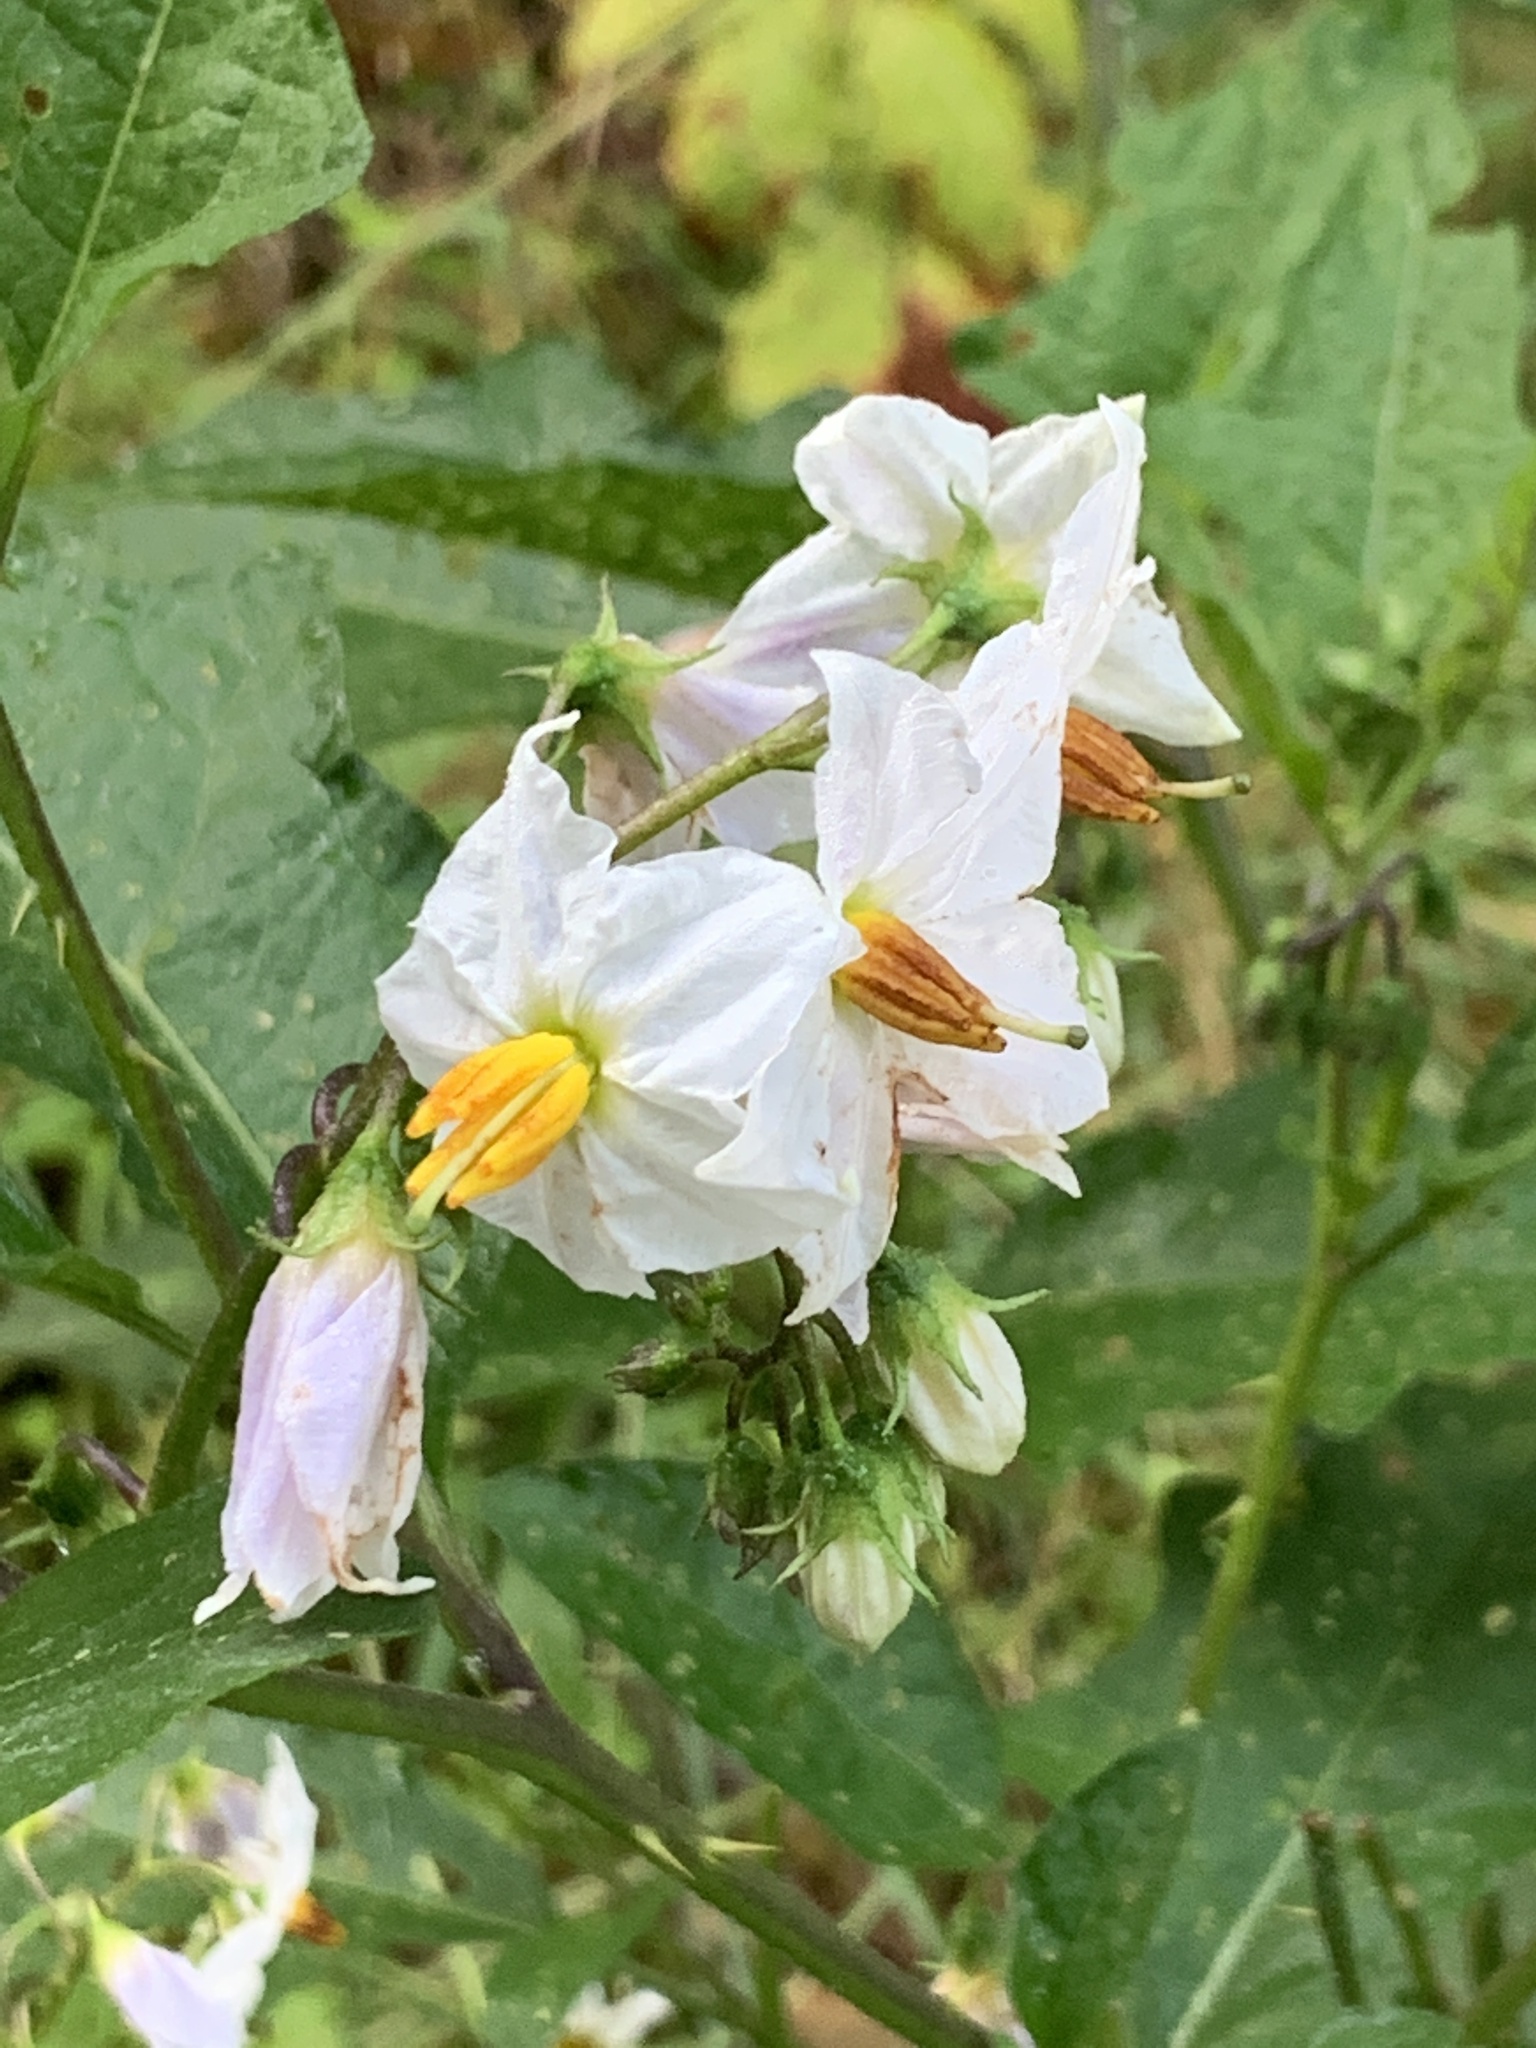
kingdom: Plantae
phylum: Tracheophyta
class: Magnoliopsida
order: Solanales
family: Solanaceae
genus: Solanum
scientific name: Solanum carolinense
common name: Horse-nettle
